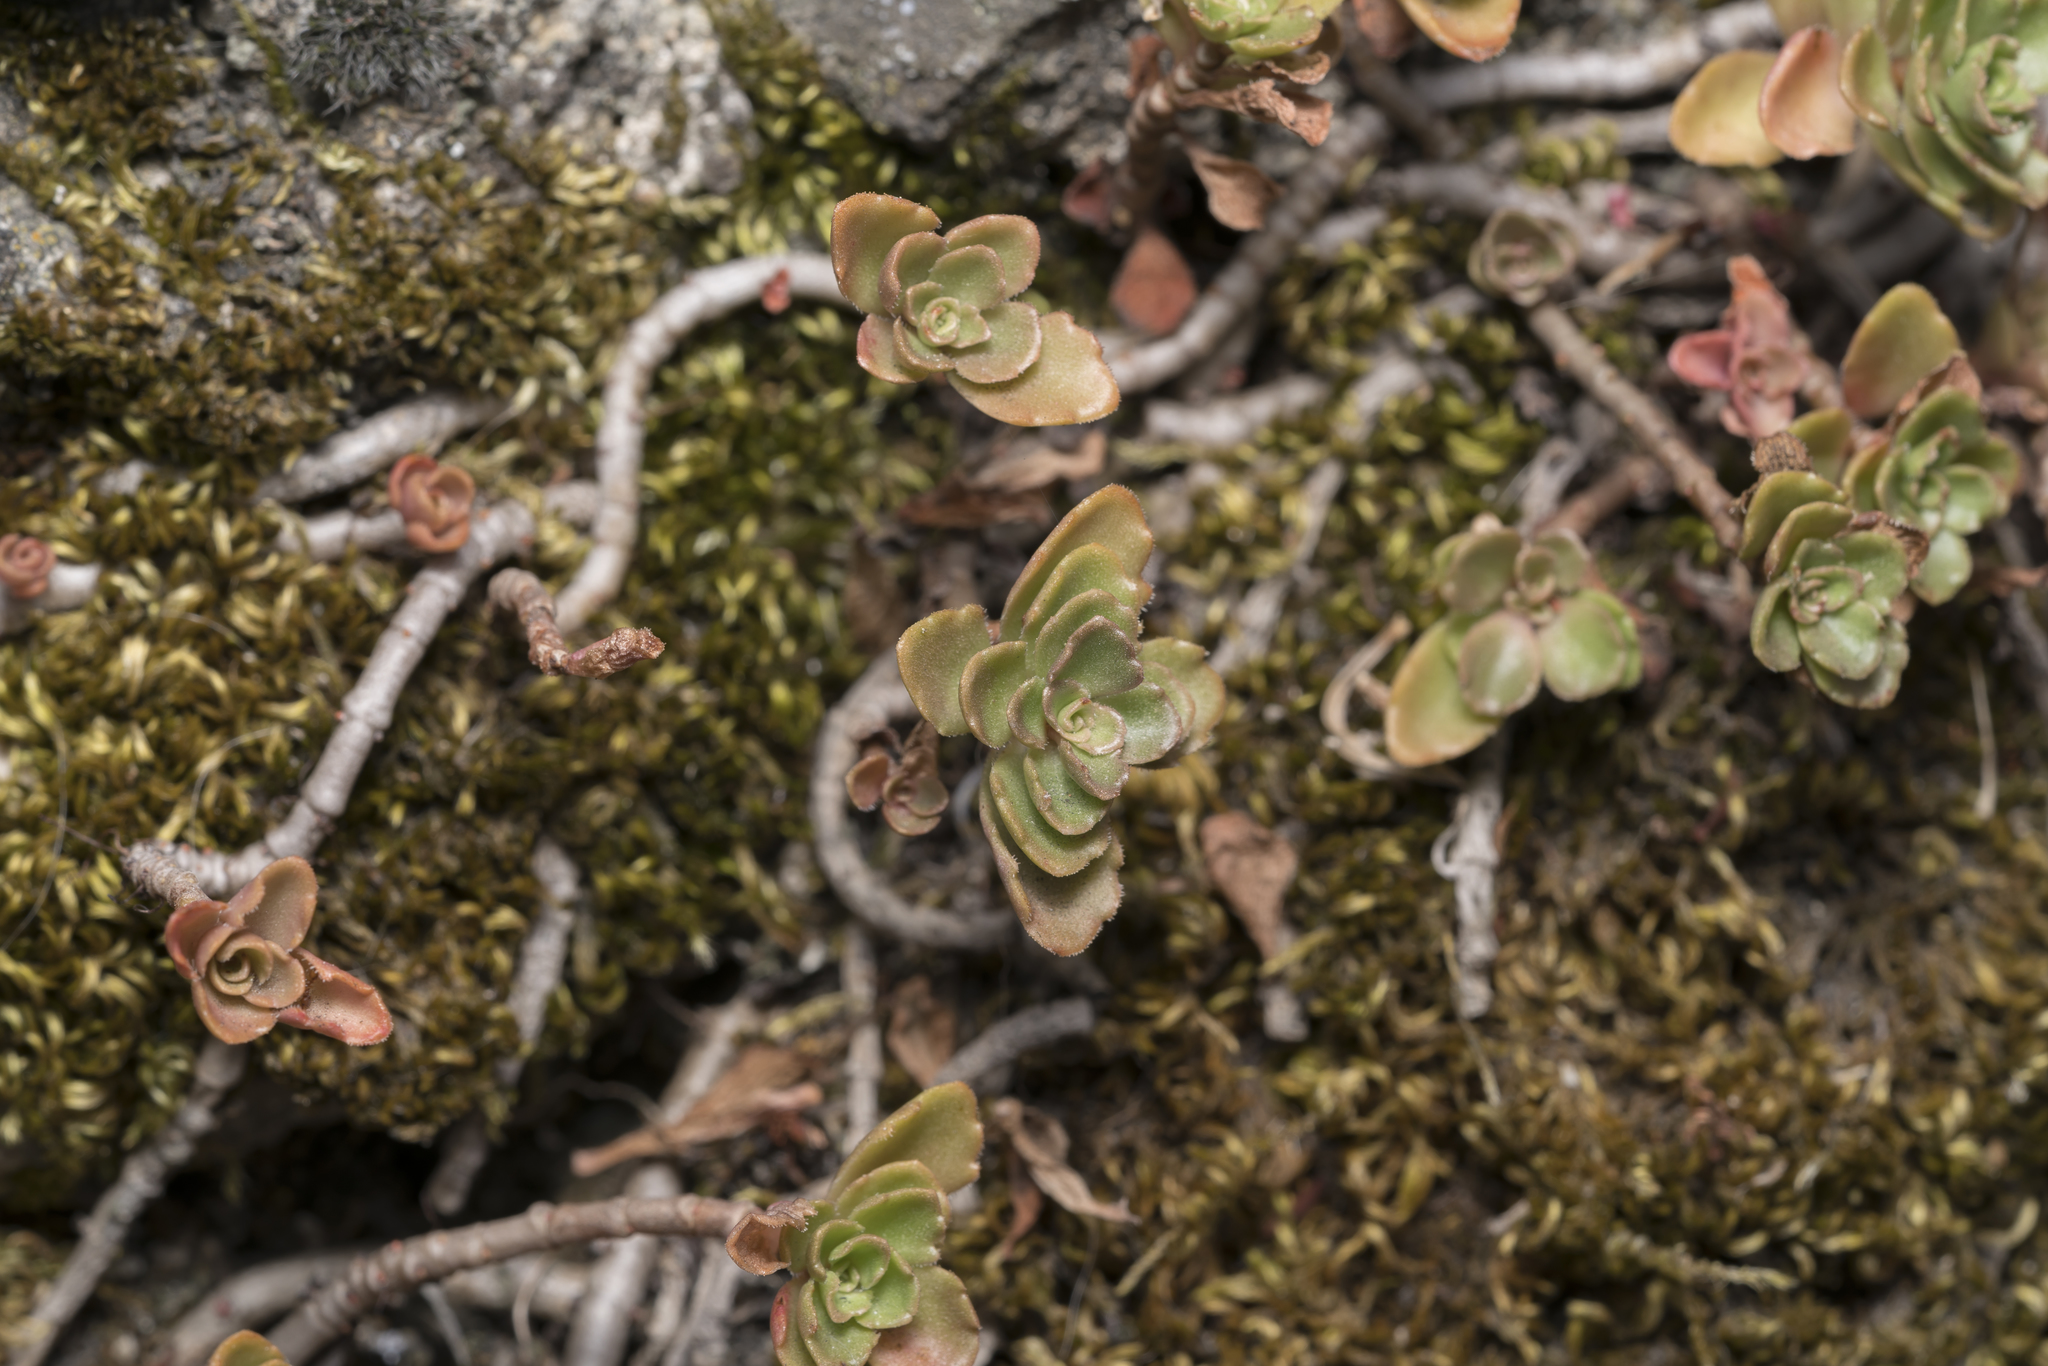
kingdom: Plantae
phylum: Tracheophyta
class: Magnoliopsida
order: Saxifragales
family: Crassulaceae
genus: Phedimus
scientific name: Phedimus spurius
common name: Caucasian stonecrop
